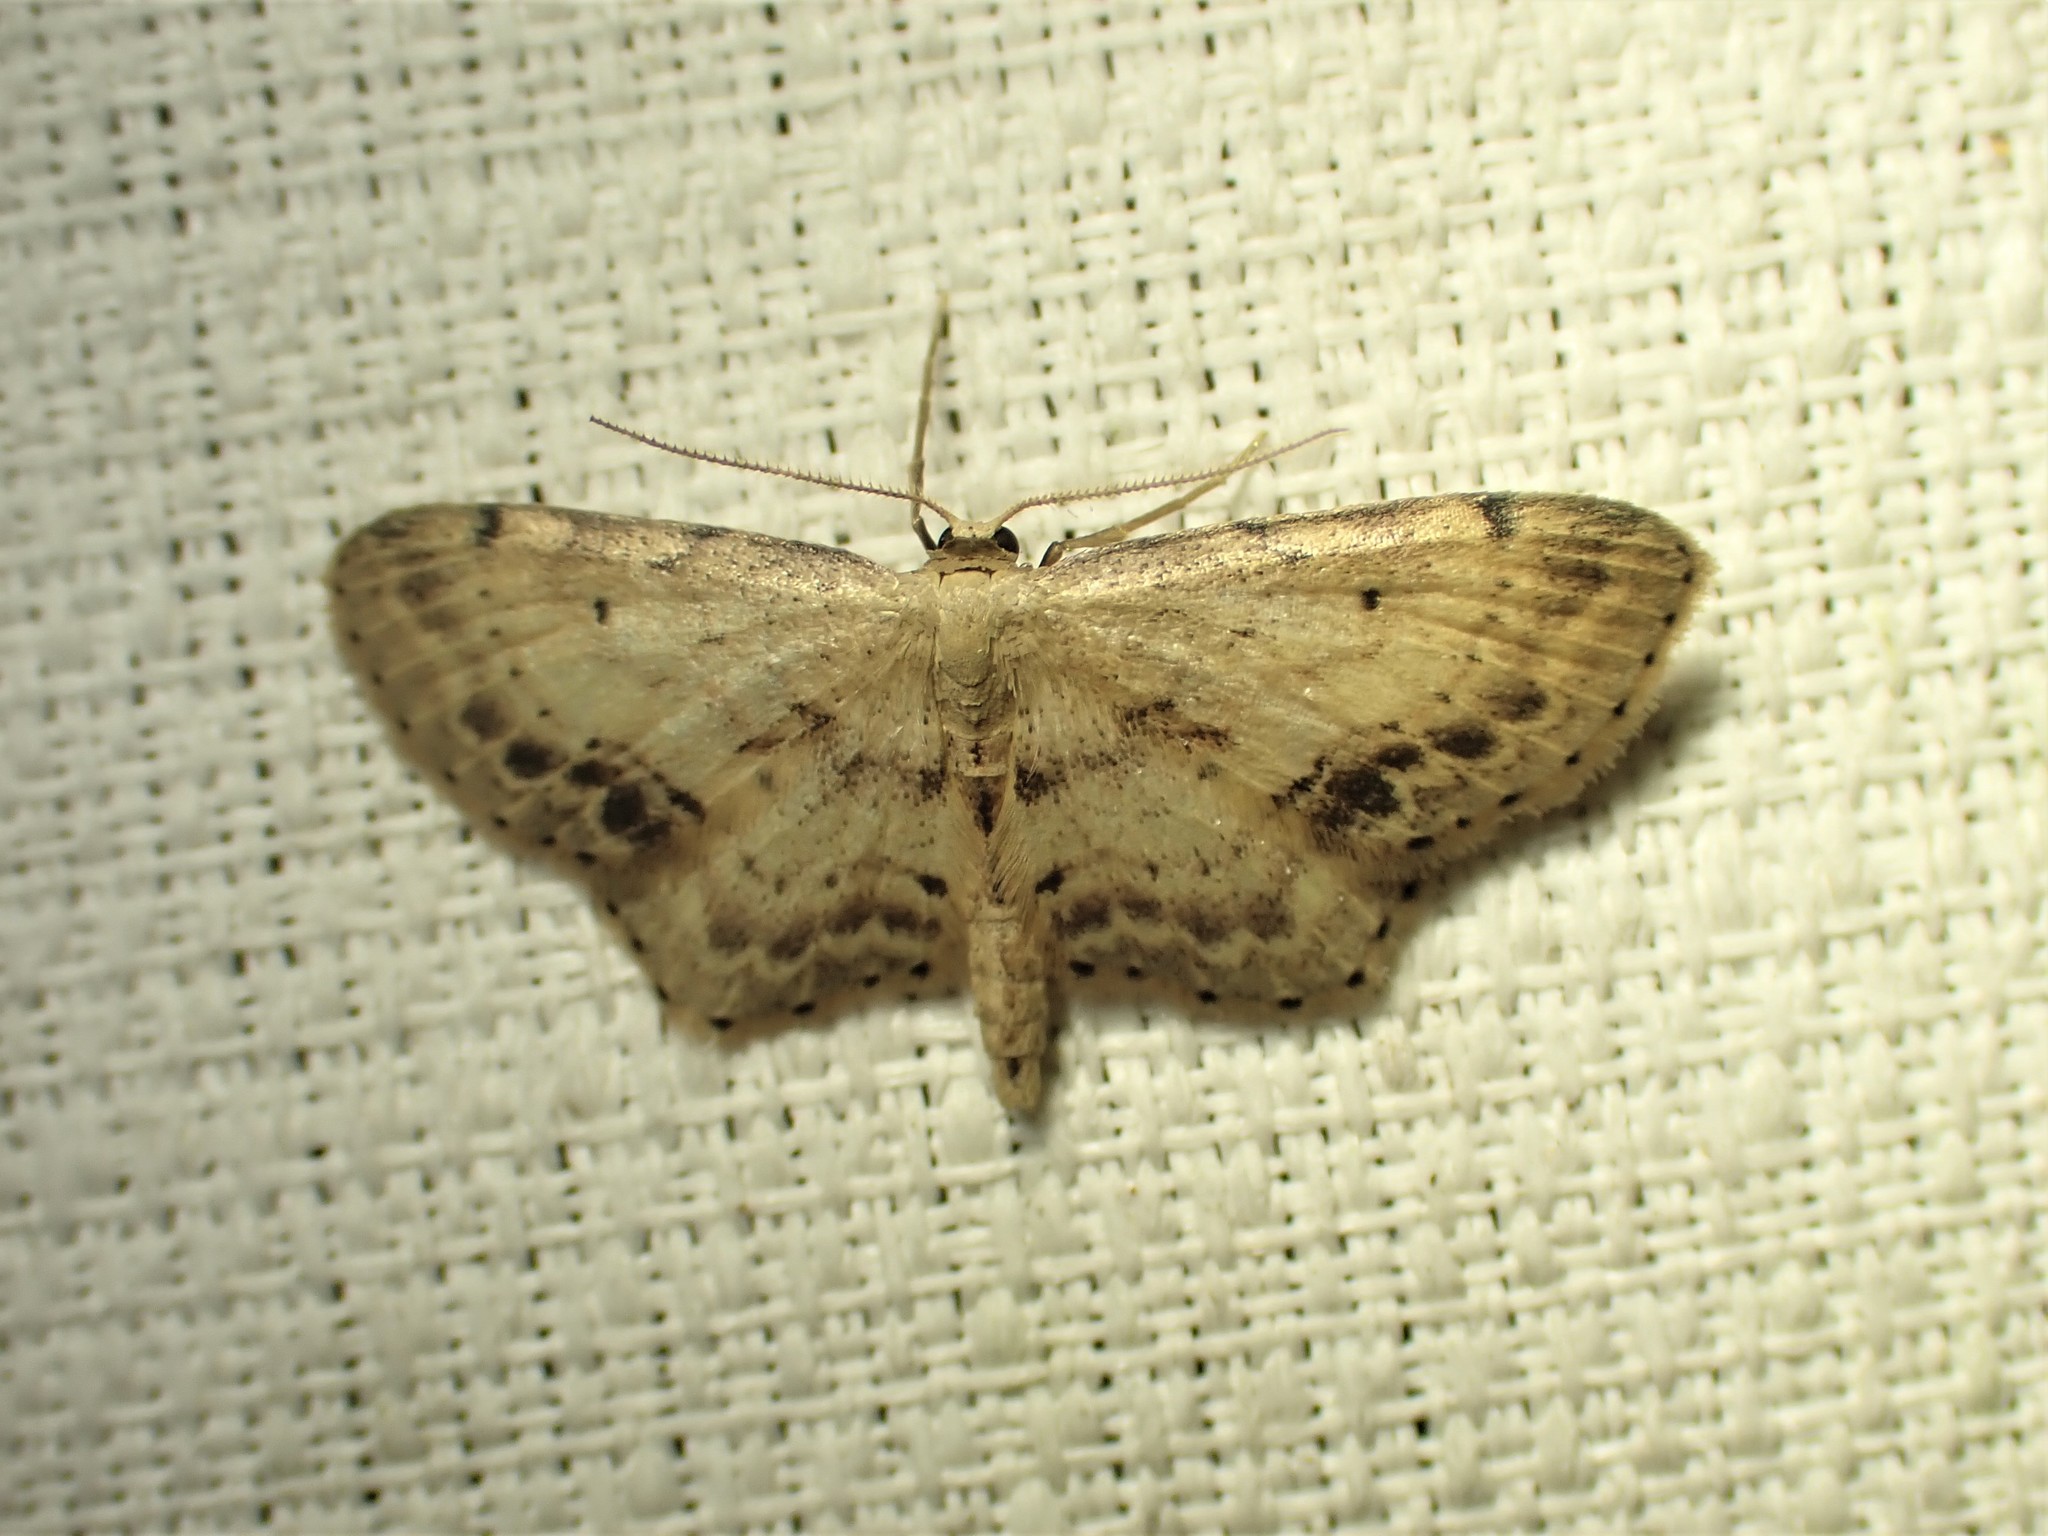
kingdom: Animalia
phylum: Arthropoda
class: Insecta
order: Lepidoptera
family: Geometridae
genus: Idaea
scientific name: Idaea dimidiata
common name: Single-dotted wave
